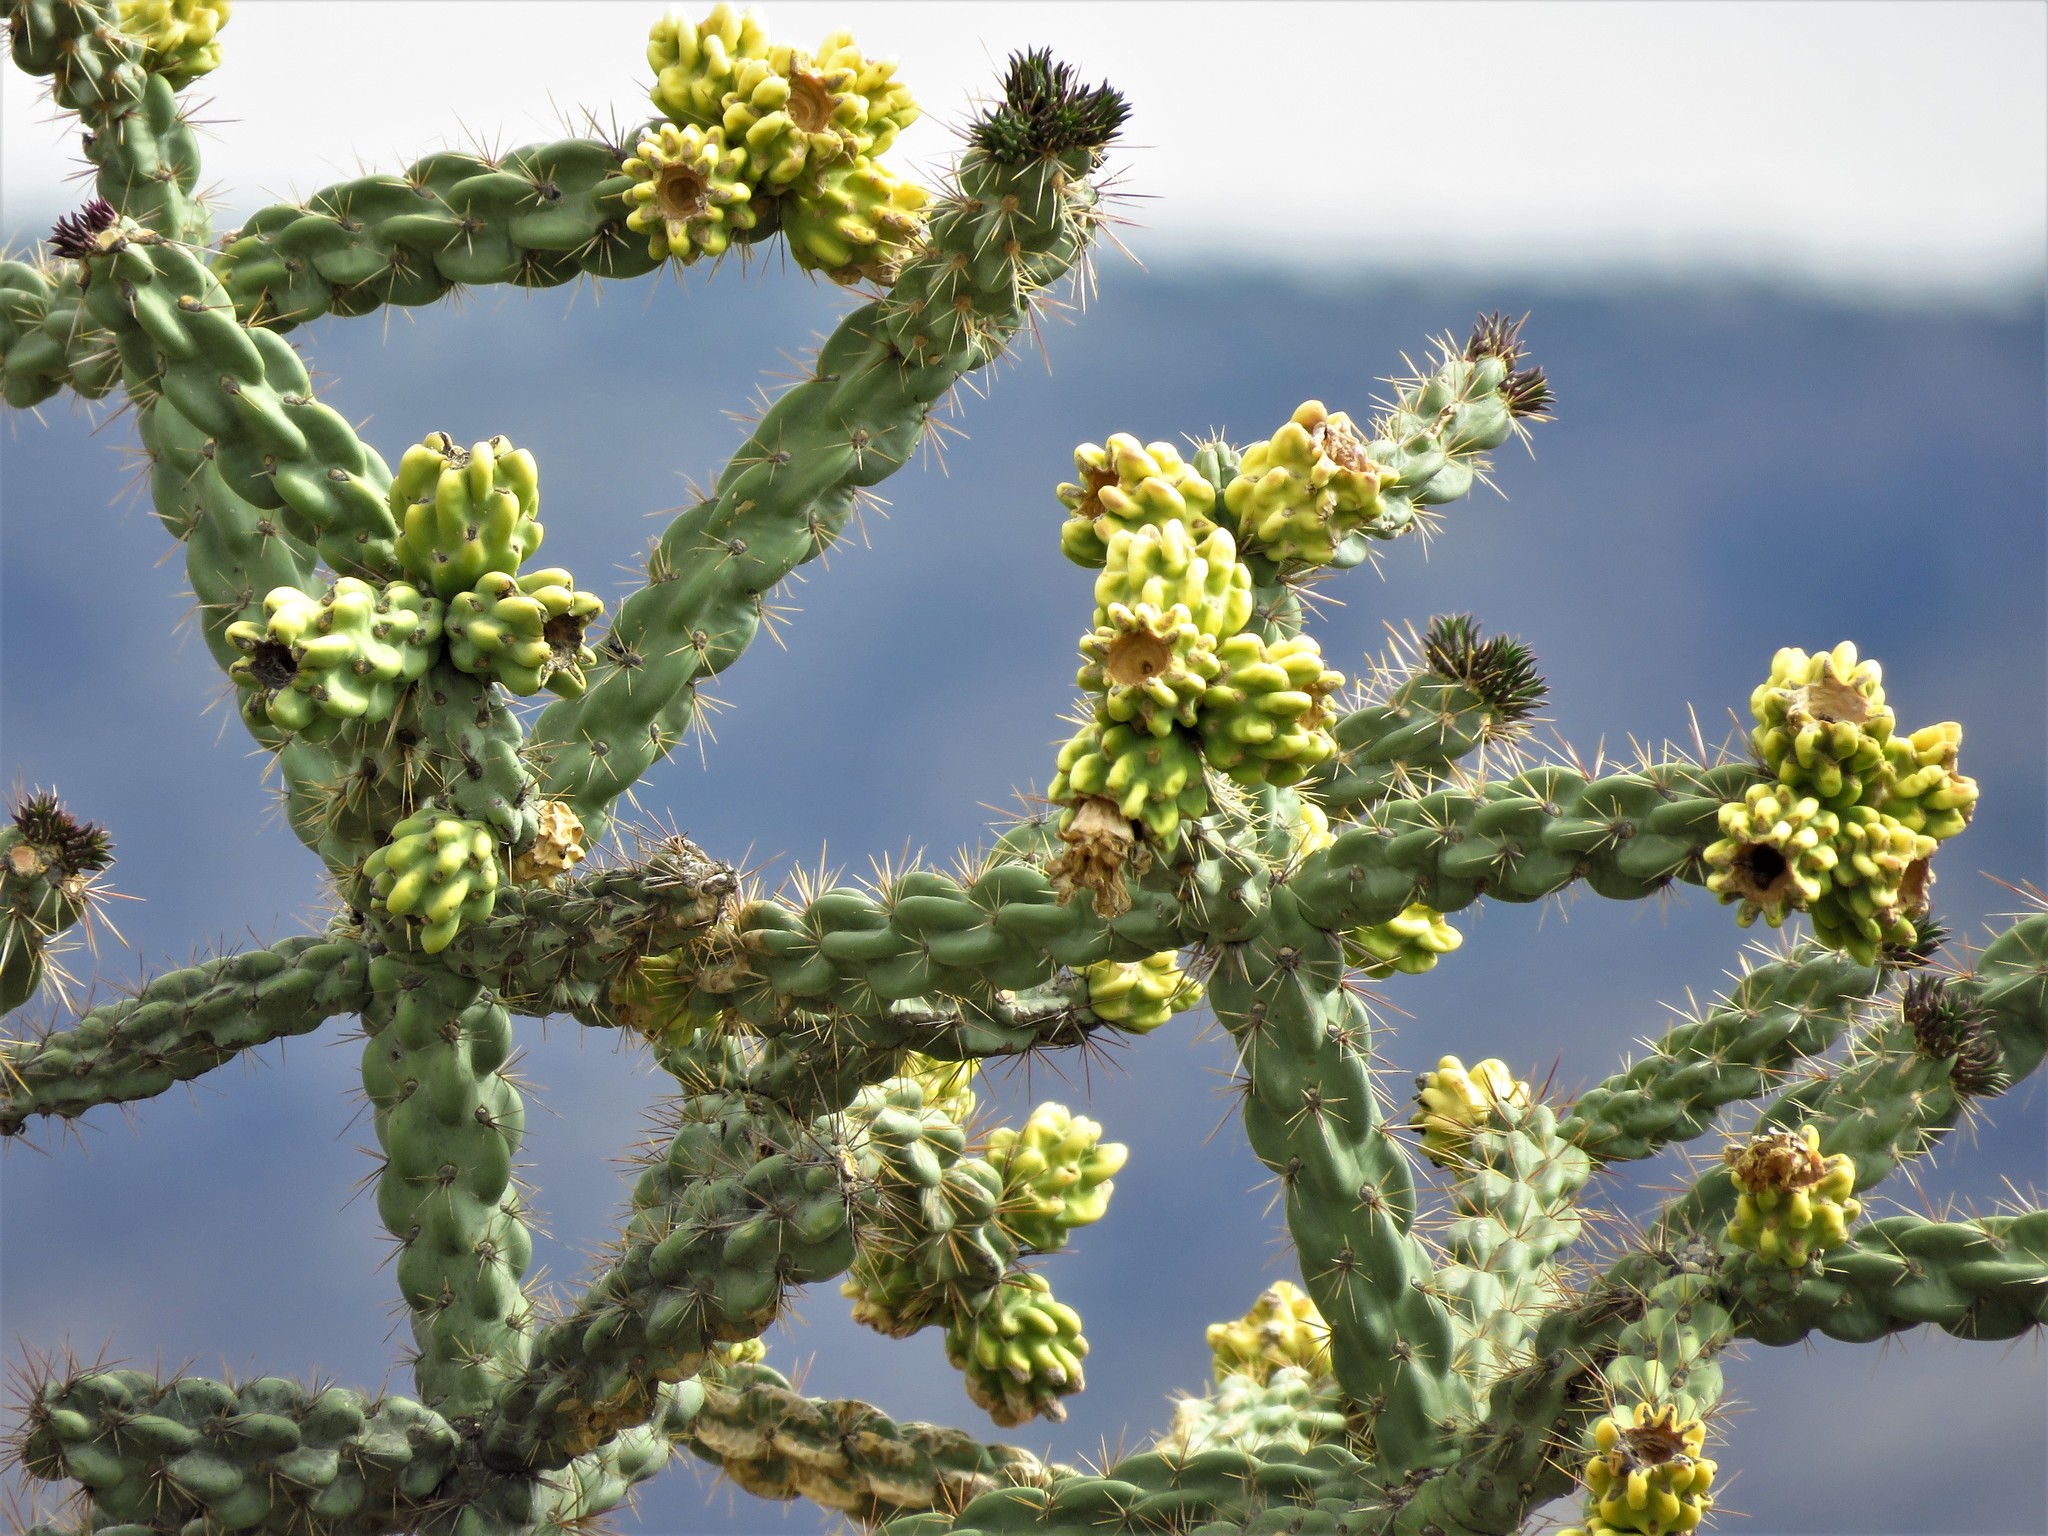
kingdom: Plantae
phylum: Tracheophyta
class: Magnoliopsida
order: Caryophyllales
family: Cactaceae
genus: Cylindropuntia
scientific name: Cylindropuntia imbricata
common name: Candelabrum cactus
